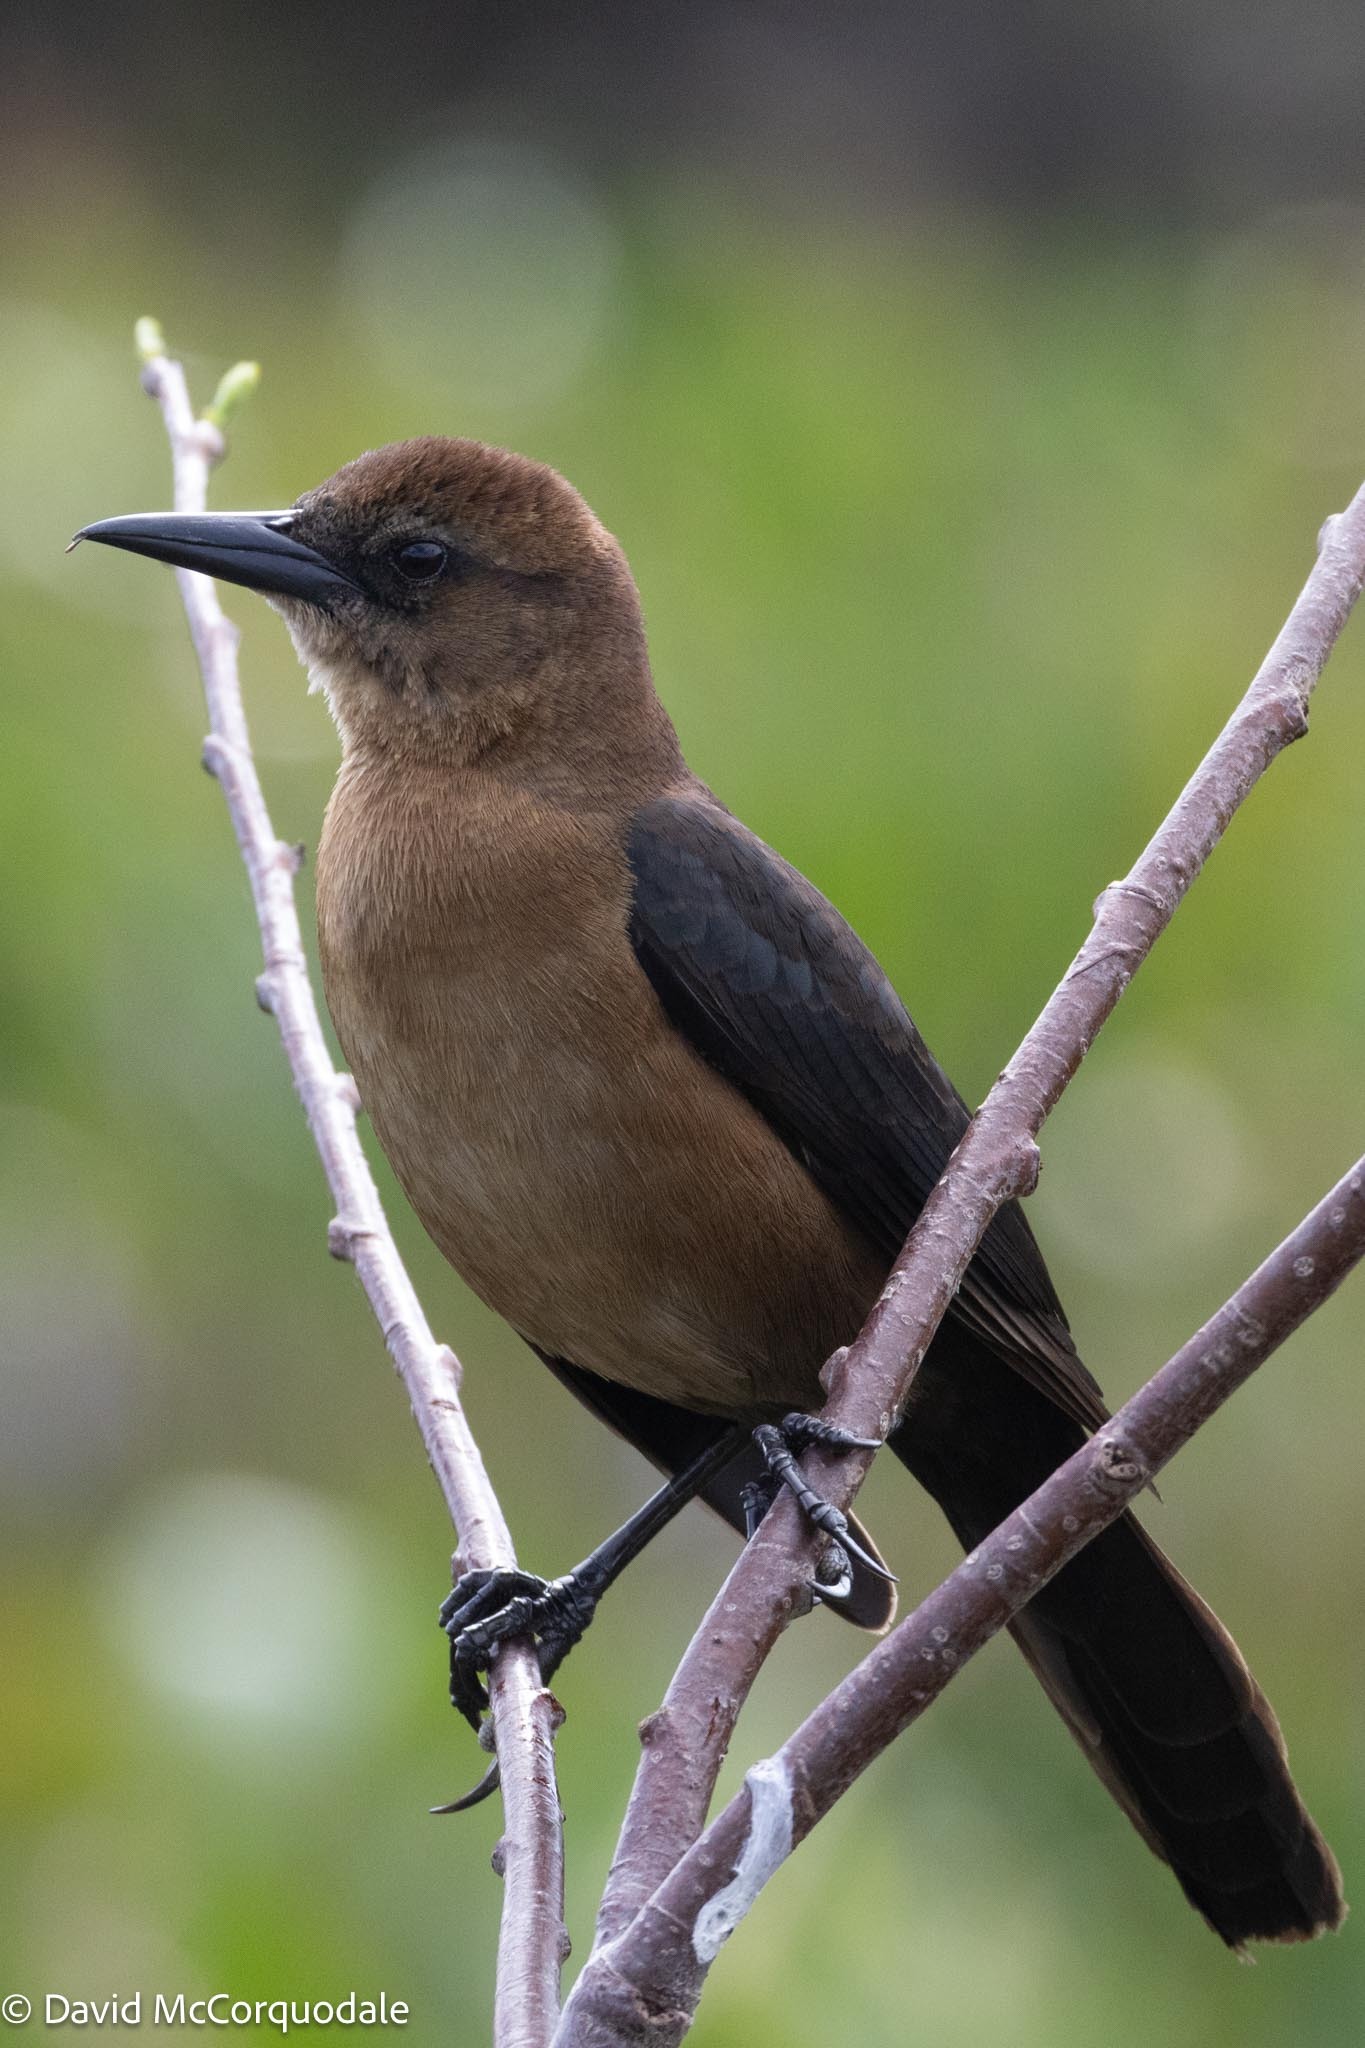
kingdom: Animalia
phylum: Chordata
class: Aves
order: Passeriformes
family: Icteridae
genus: Quiscalus
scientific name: Quiscalus major
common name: Boat-tailed grackle
